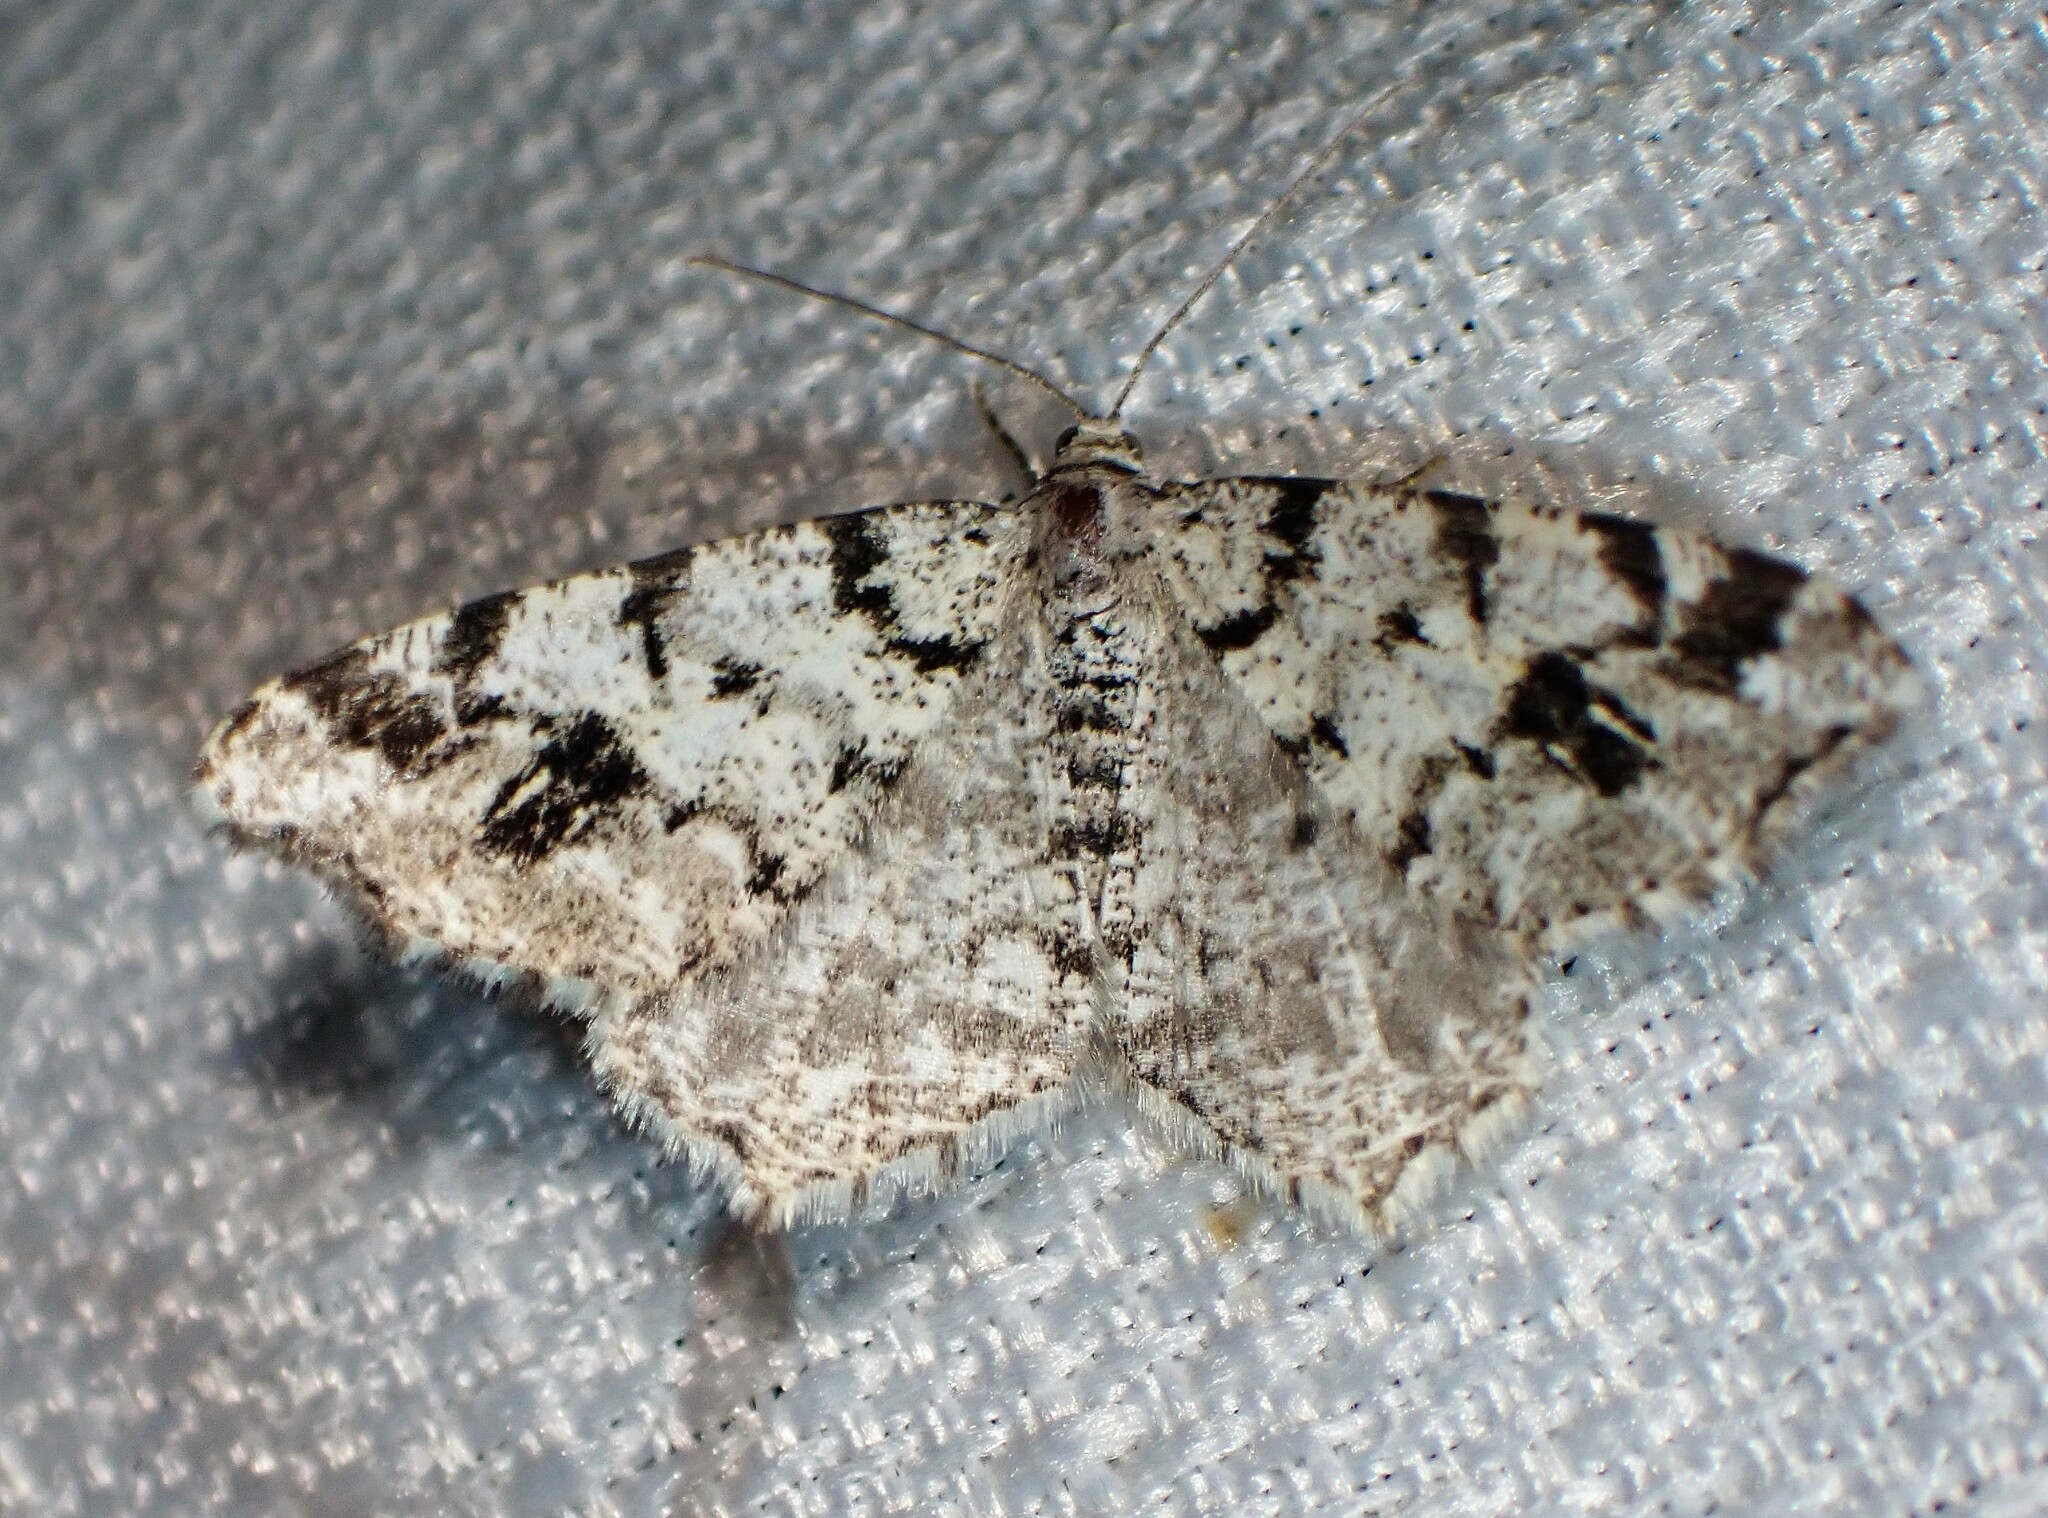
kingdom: Animalia
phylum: Arthropoda
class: Insecta
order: Lepidoptera
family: Geometridae
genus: Macaria
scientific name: Macaria oweni
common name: Owen's angle
